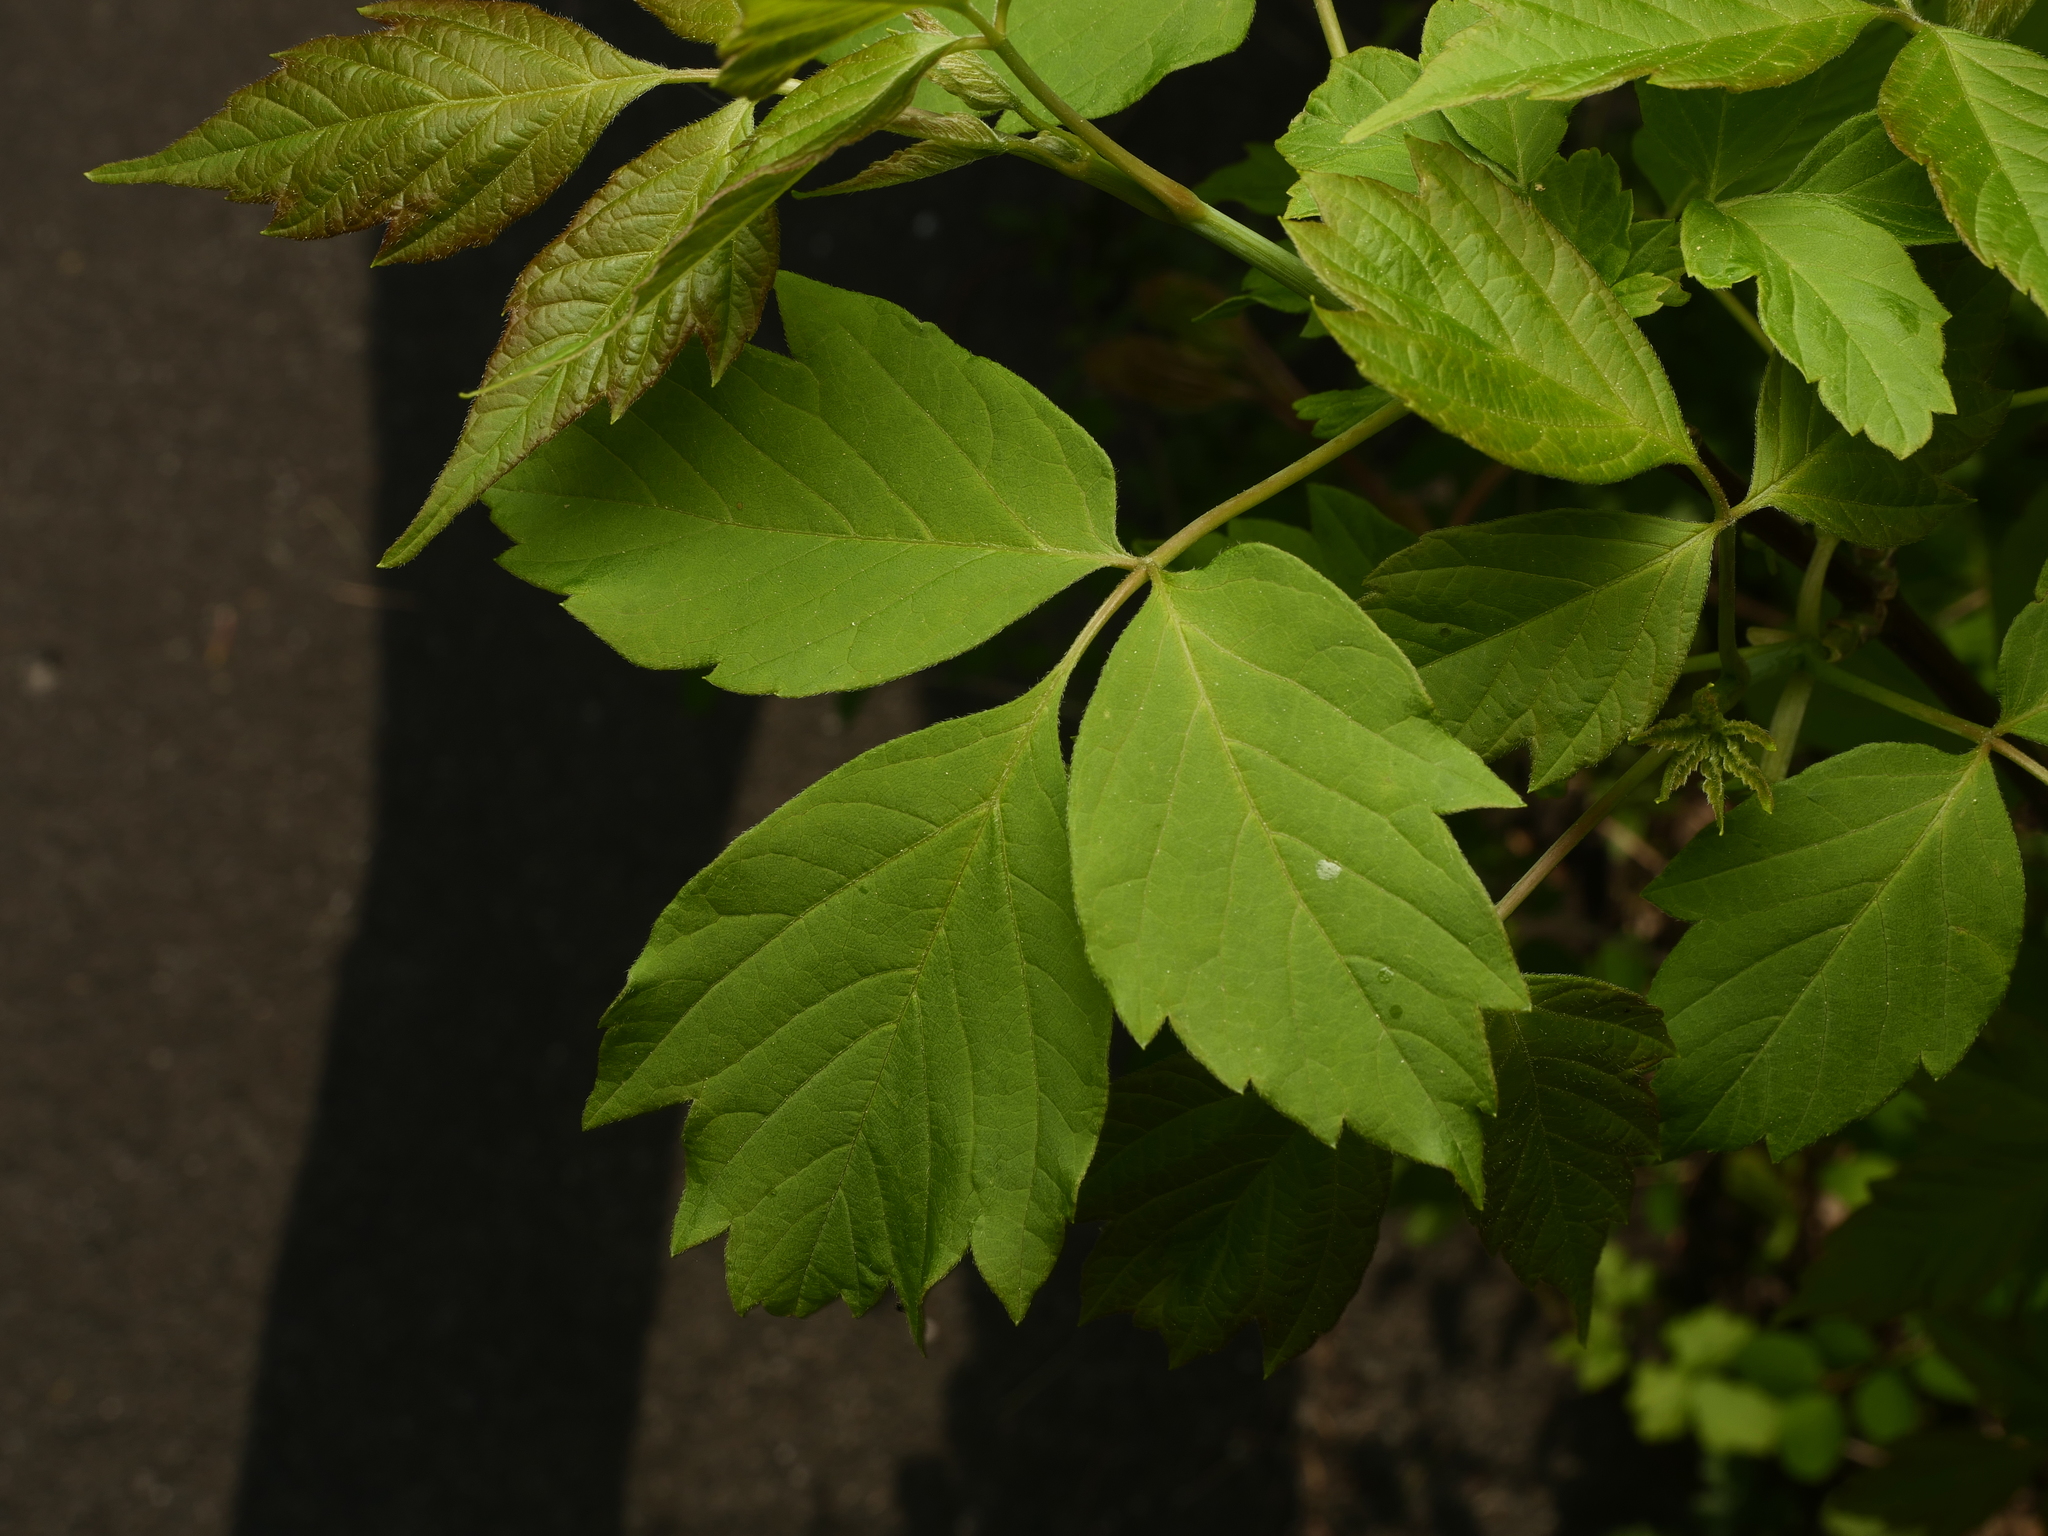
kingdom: Plantae
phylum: Tracheophyta
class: Magnoliopsida
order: Sapindales
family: Sapindaceae
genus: Acer
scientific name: Acer negundo
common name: Ashleaf maple
